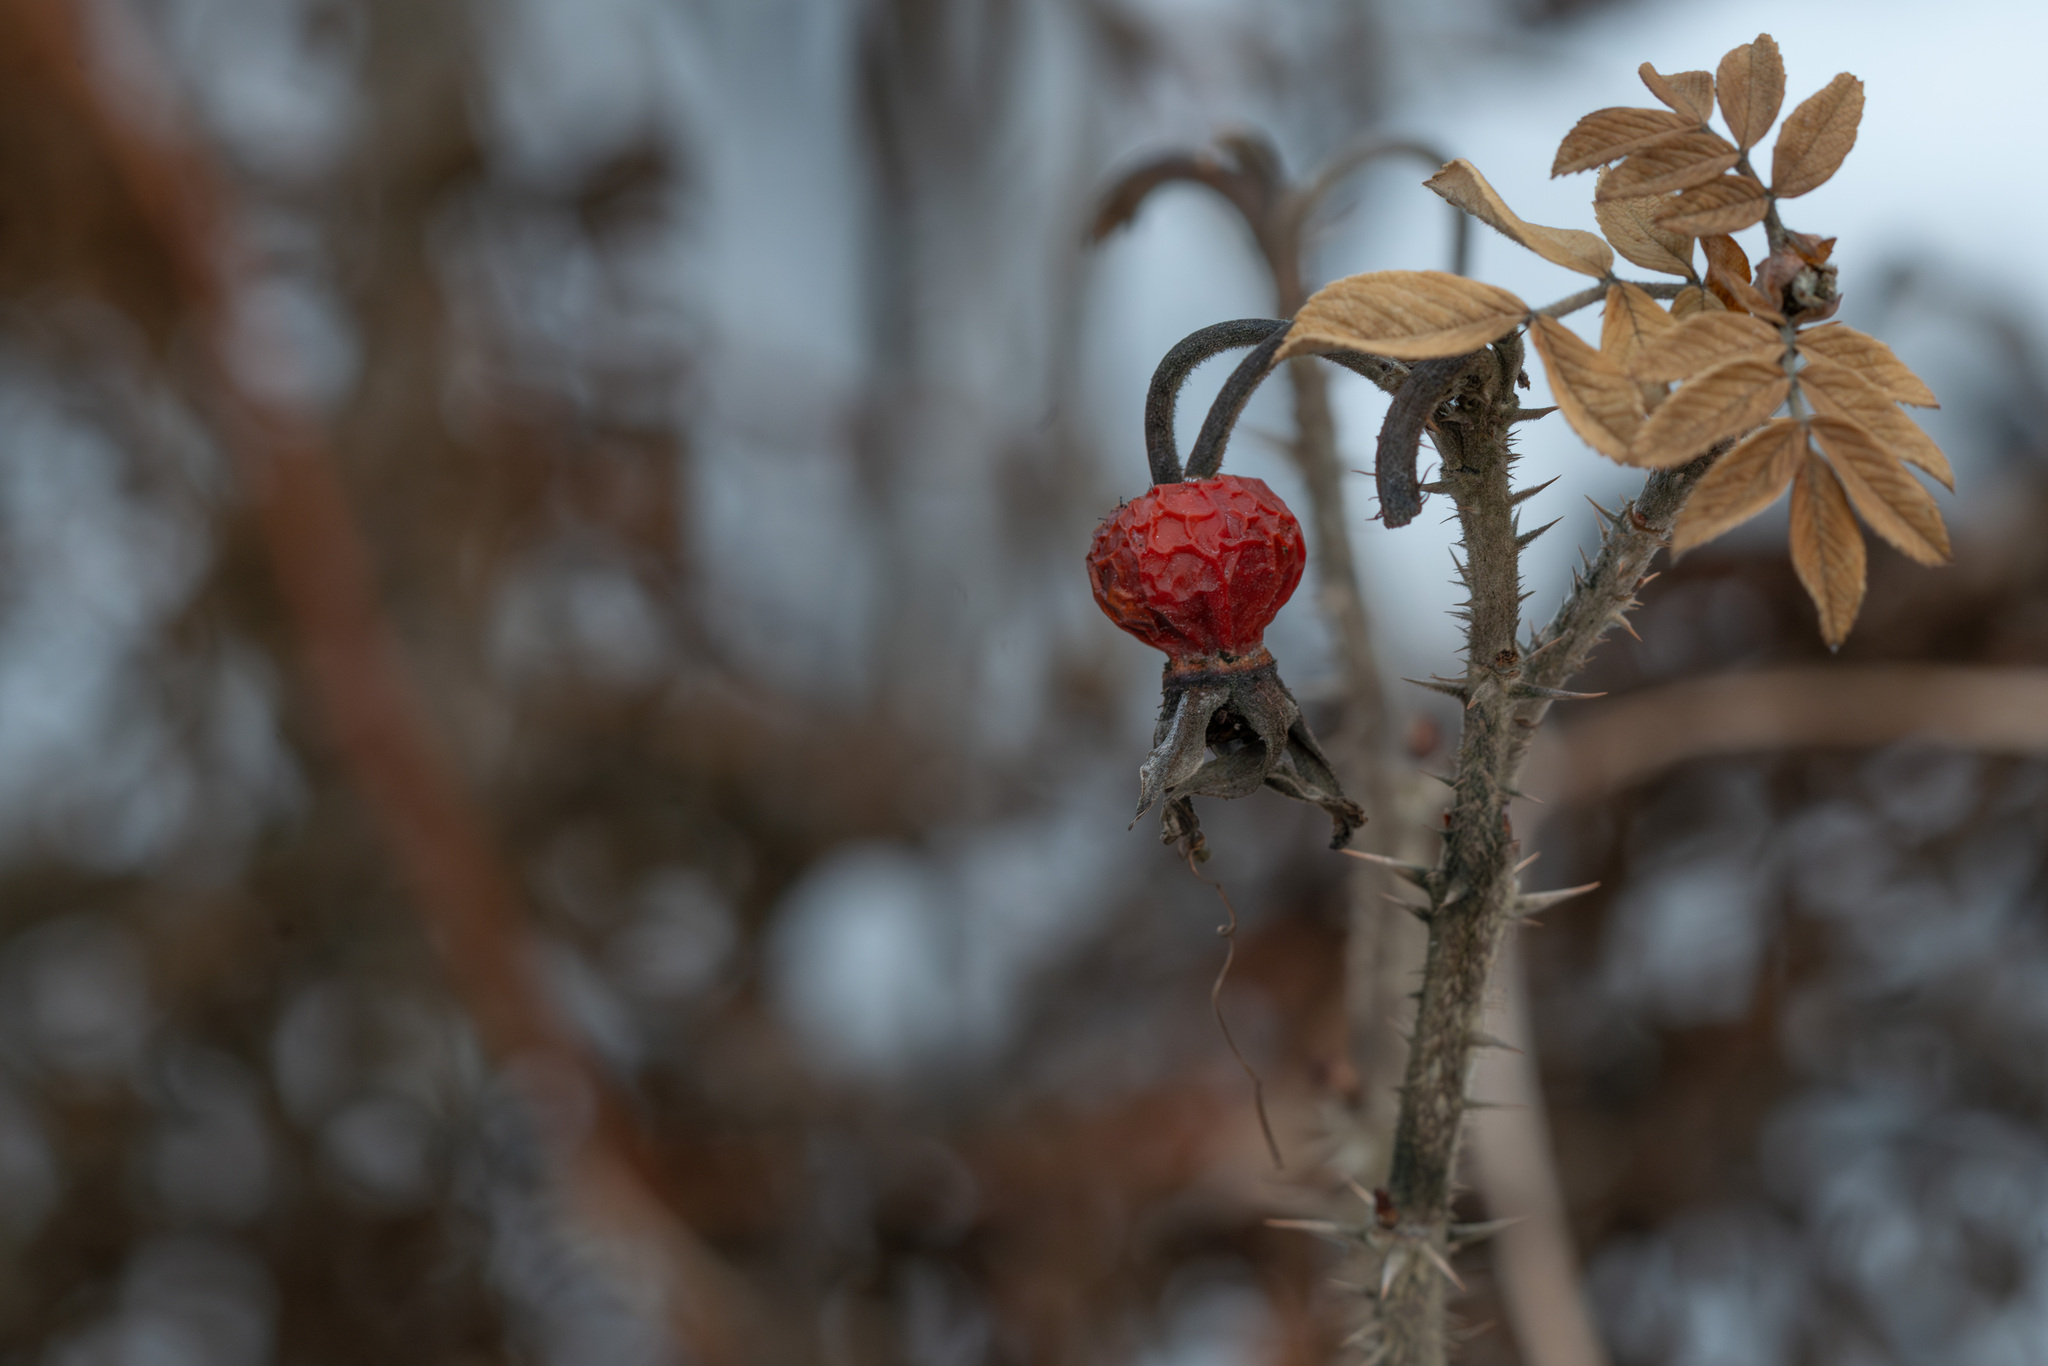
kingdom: Plantae
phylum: Tracheophyta
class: Magnoliopsida
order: Rosales
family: Rosaceae
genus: Rosa
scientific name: Rosa rugosa
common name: Japanese rose
